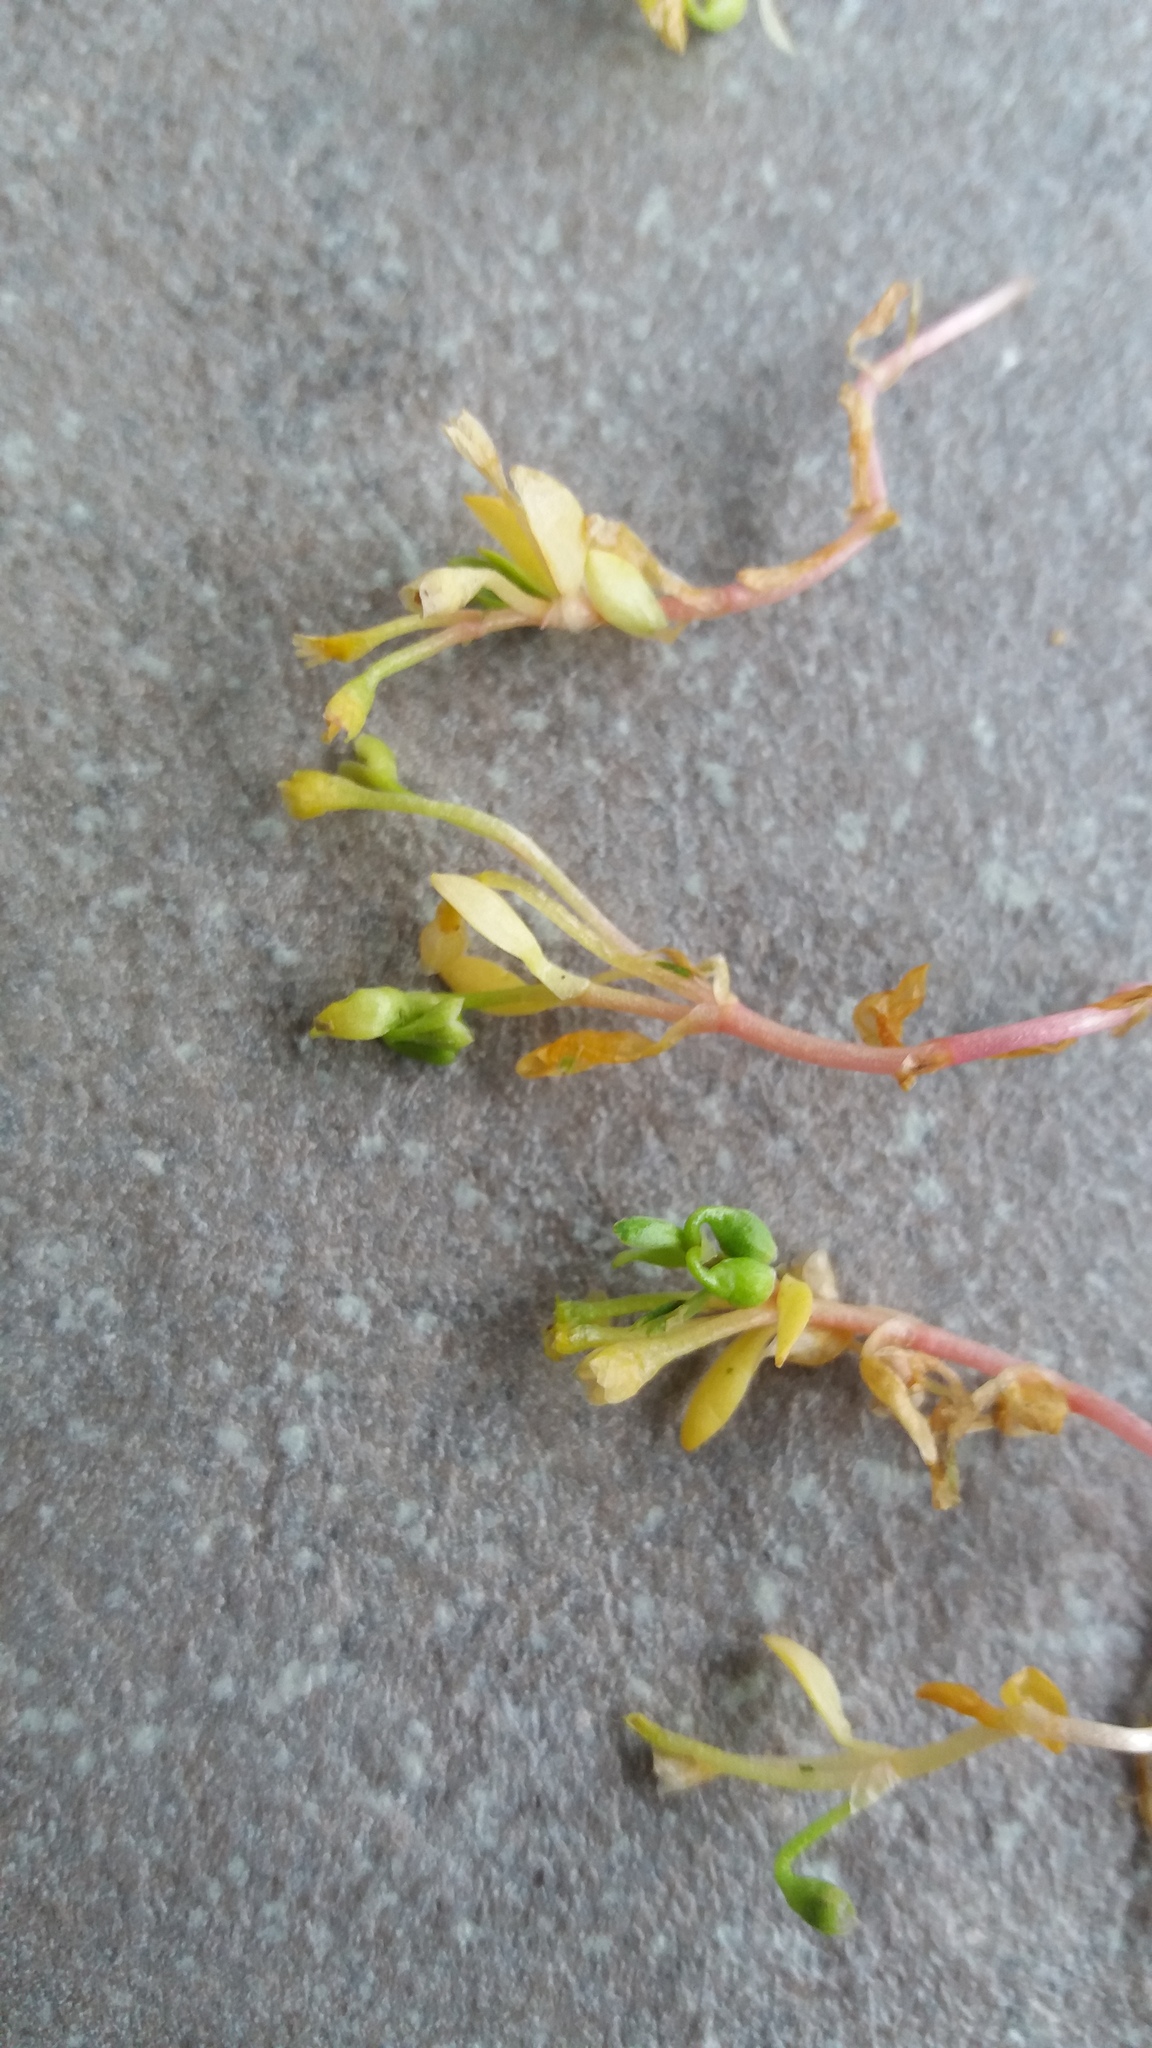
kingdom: Plantae
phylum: Tracheophyta
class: Magnoliopsida
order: Caryophyllales
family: Montiaceae
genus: Montia
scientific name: Montia fontana
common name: Blinks
